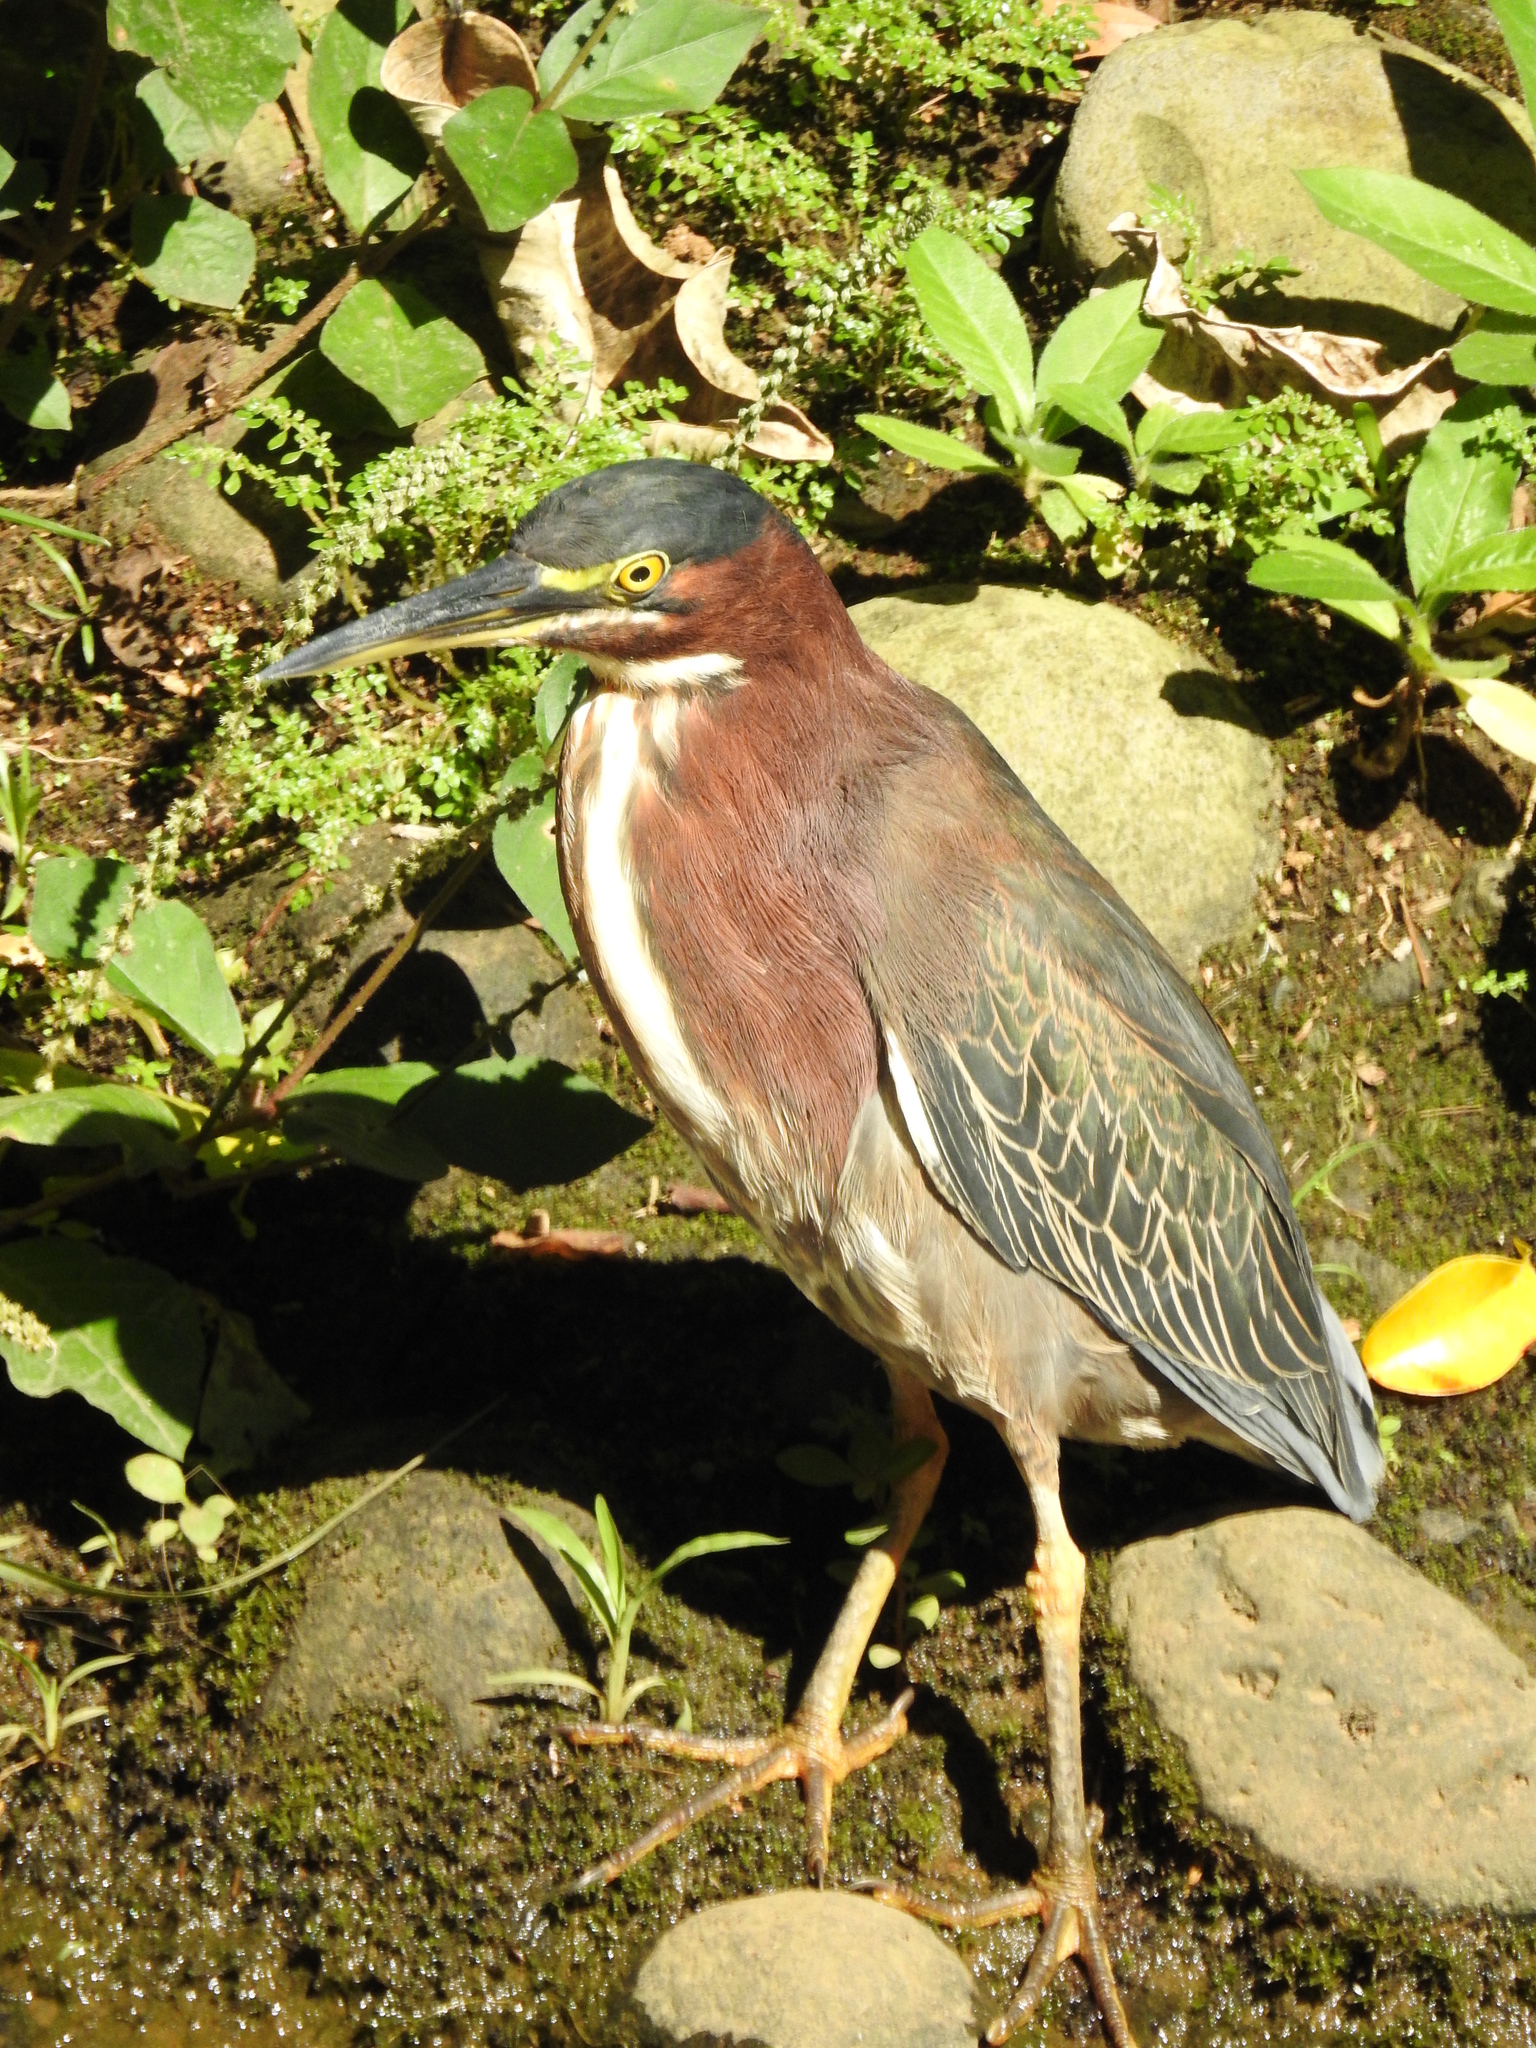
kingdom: Animalia
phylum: Chordata
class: Aves
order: Pelecaniformes
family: Ardeidae
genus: Butorides
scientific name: Butorides virescens
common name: Green heron
